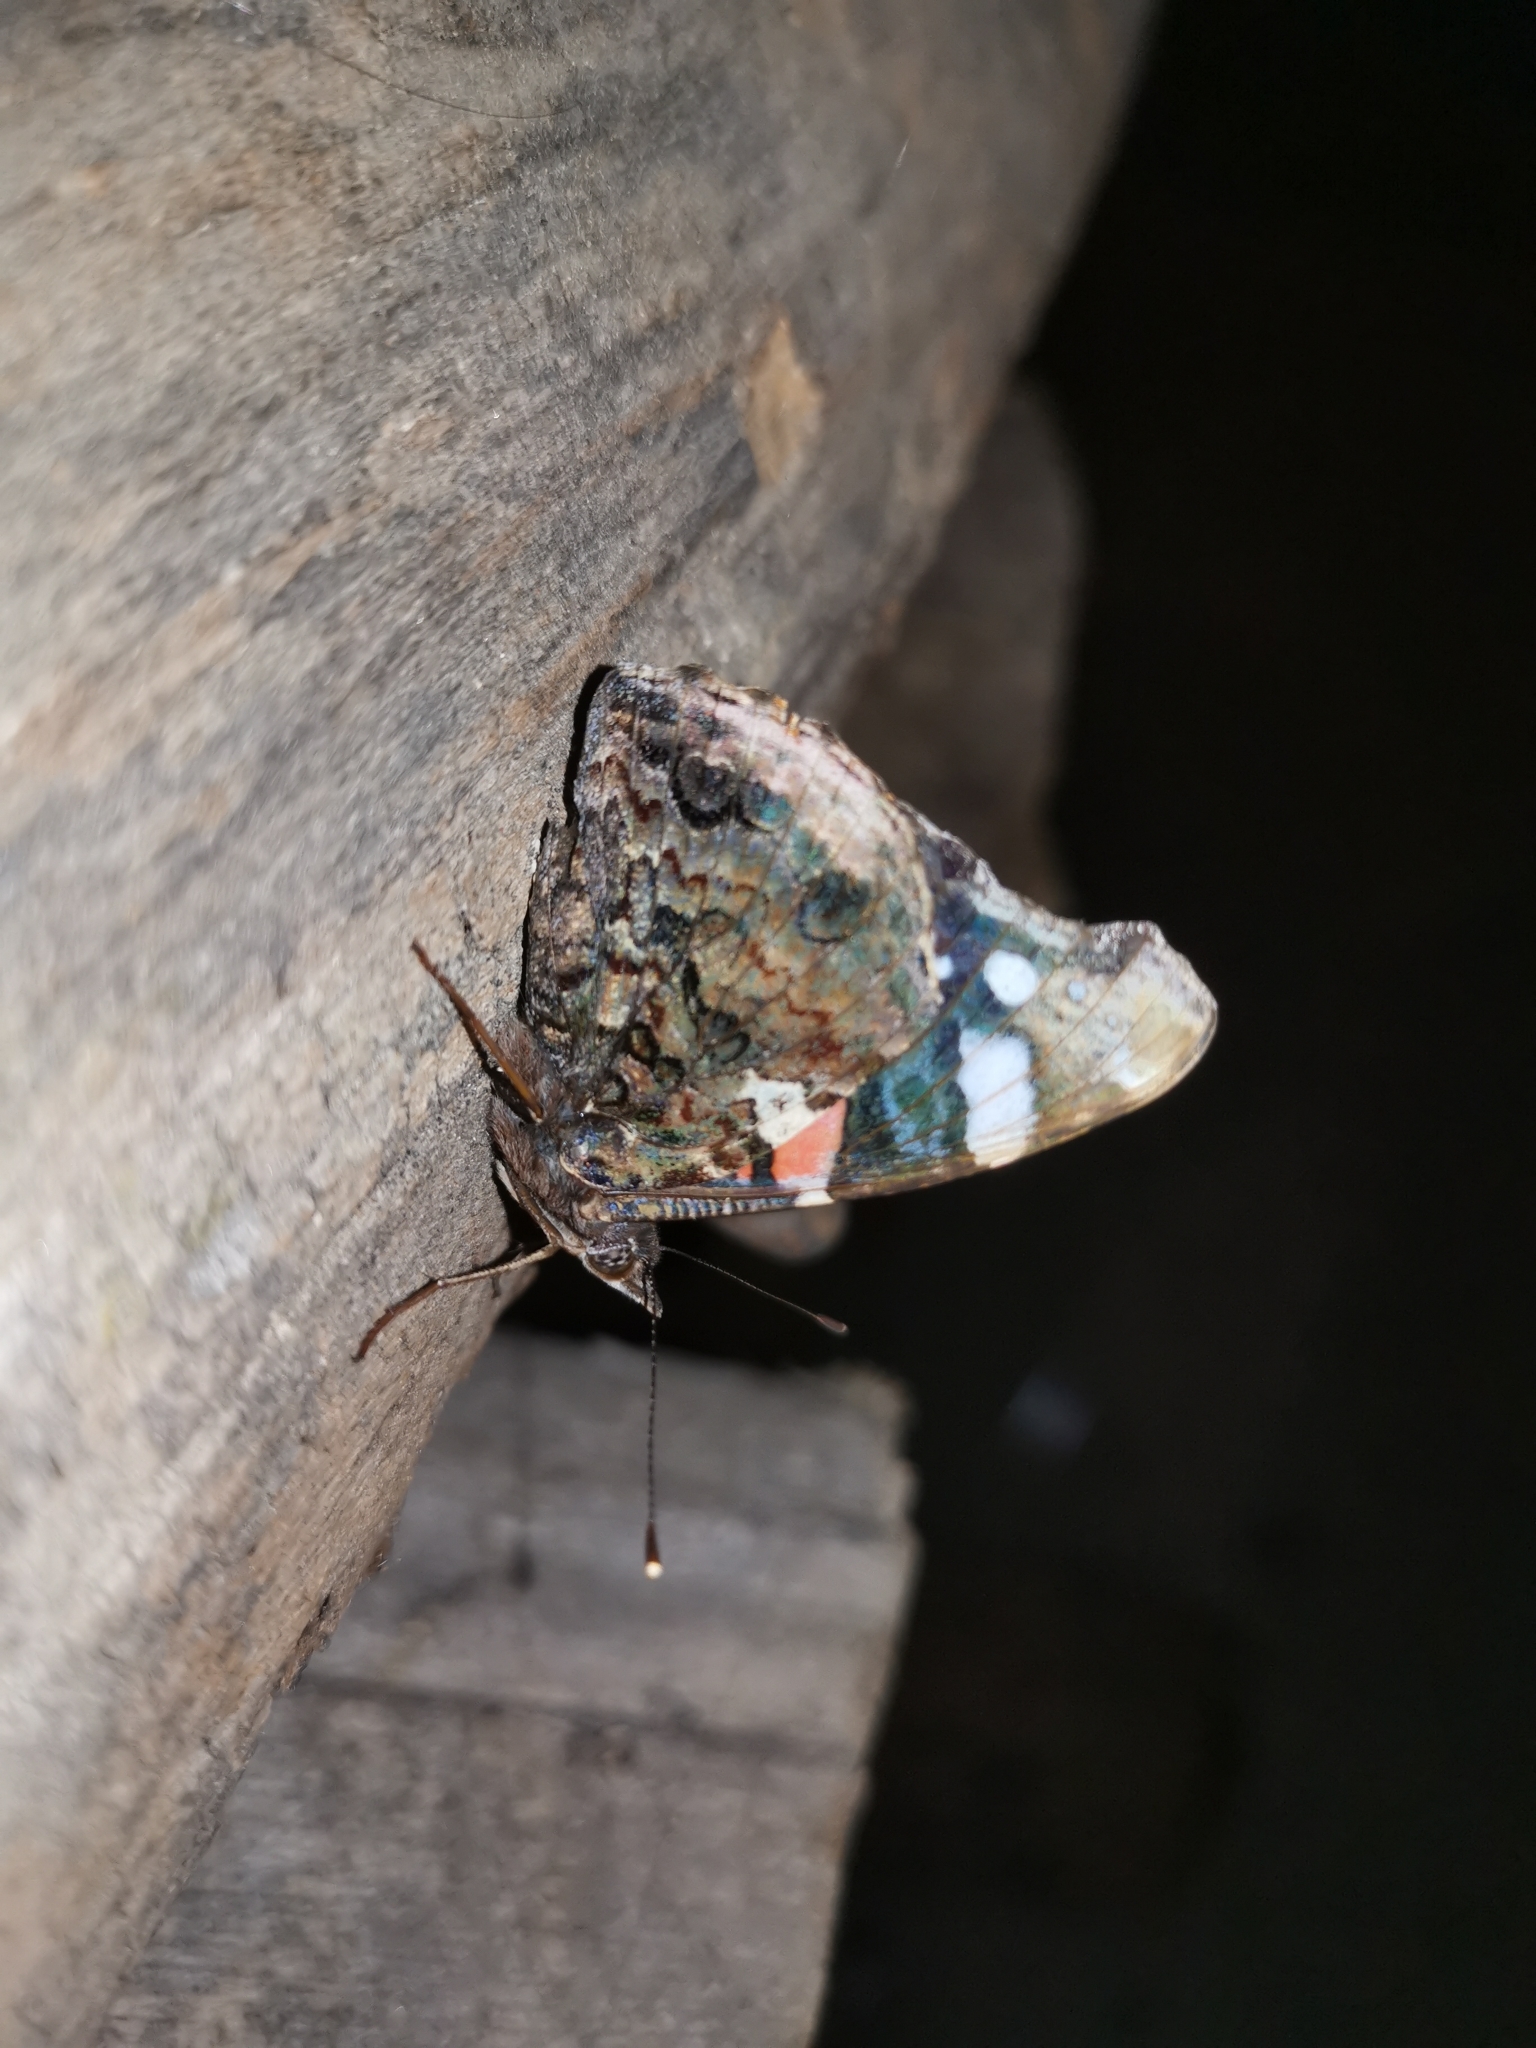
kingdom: Animalia
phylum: Arthropoda
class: Insecta
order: Lepidoptera
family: Nymphalidae
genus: Vanessa
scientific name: Vanessa atalanta
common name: Red admiral
